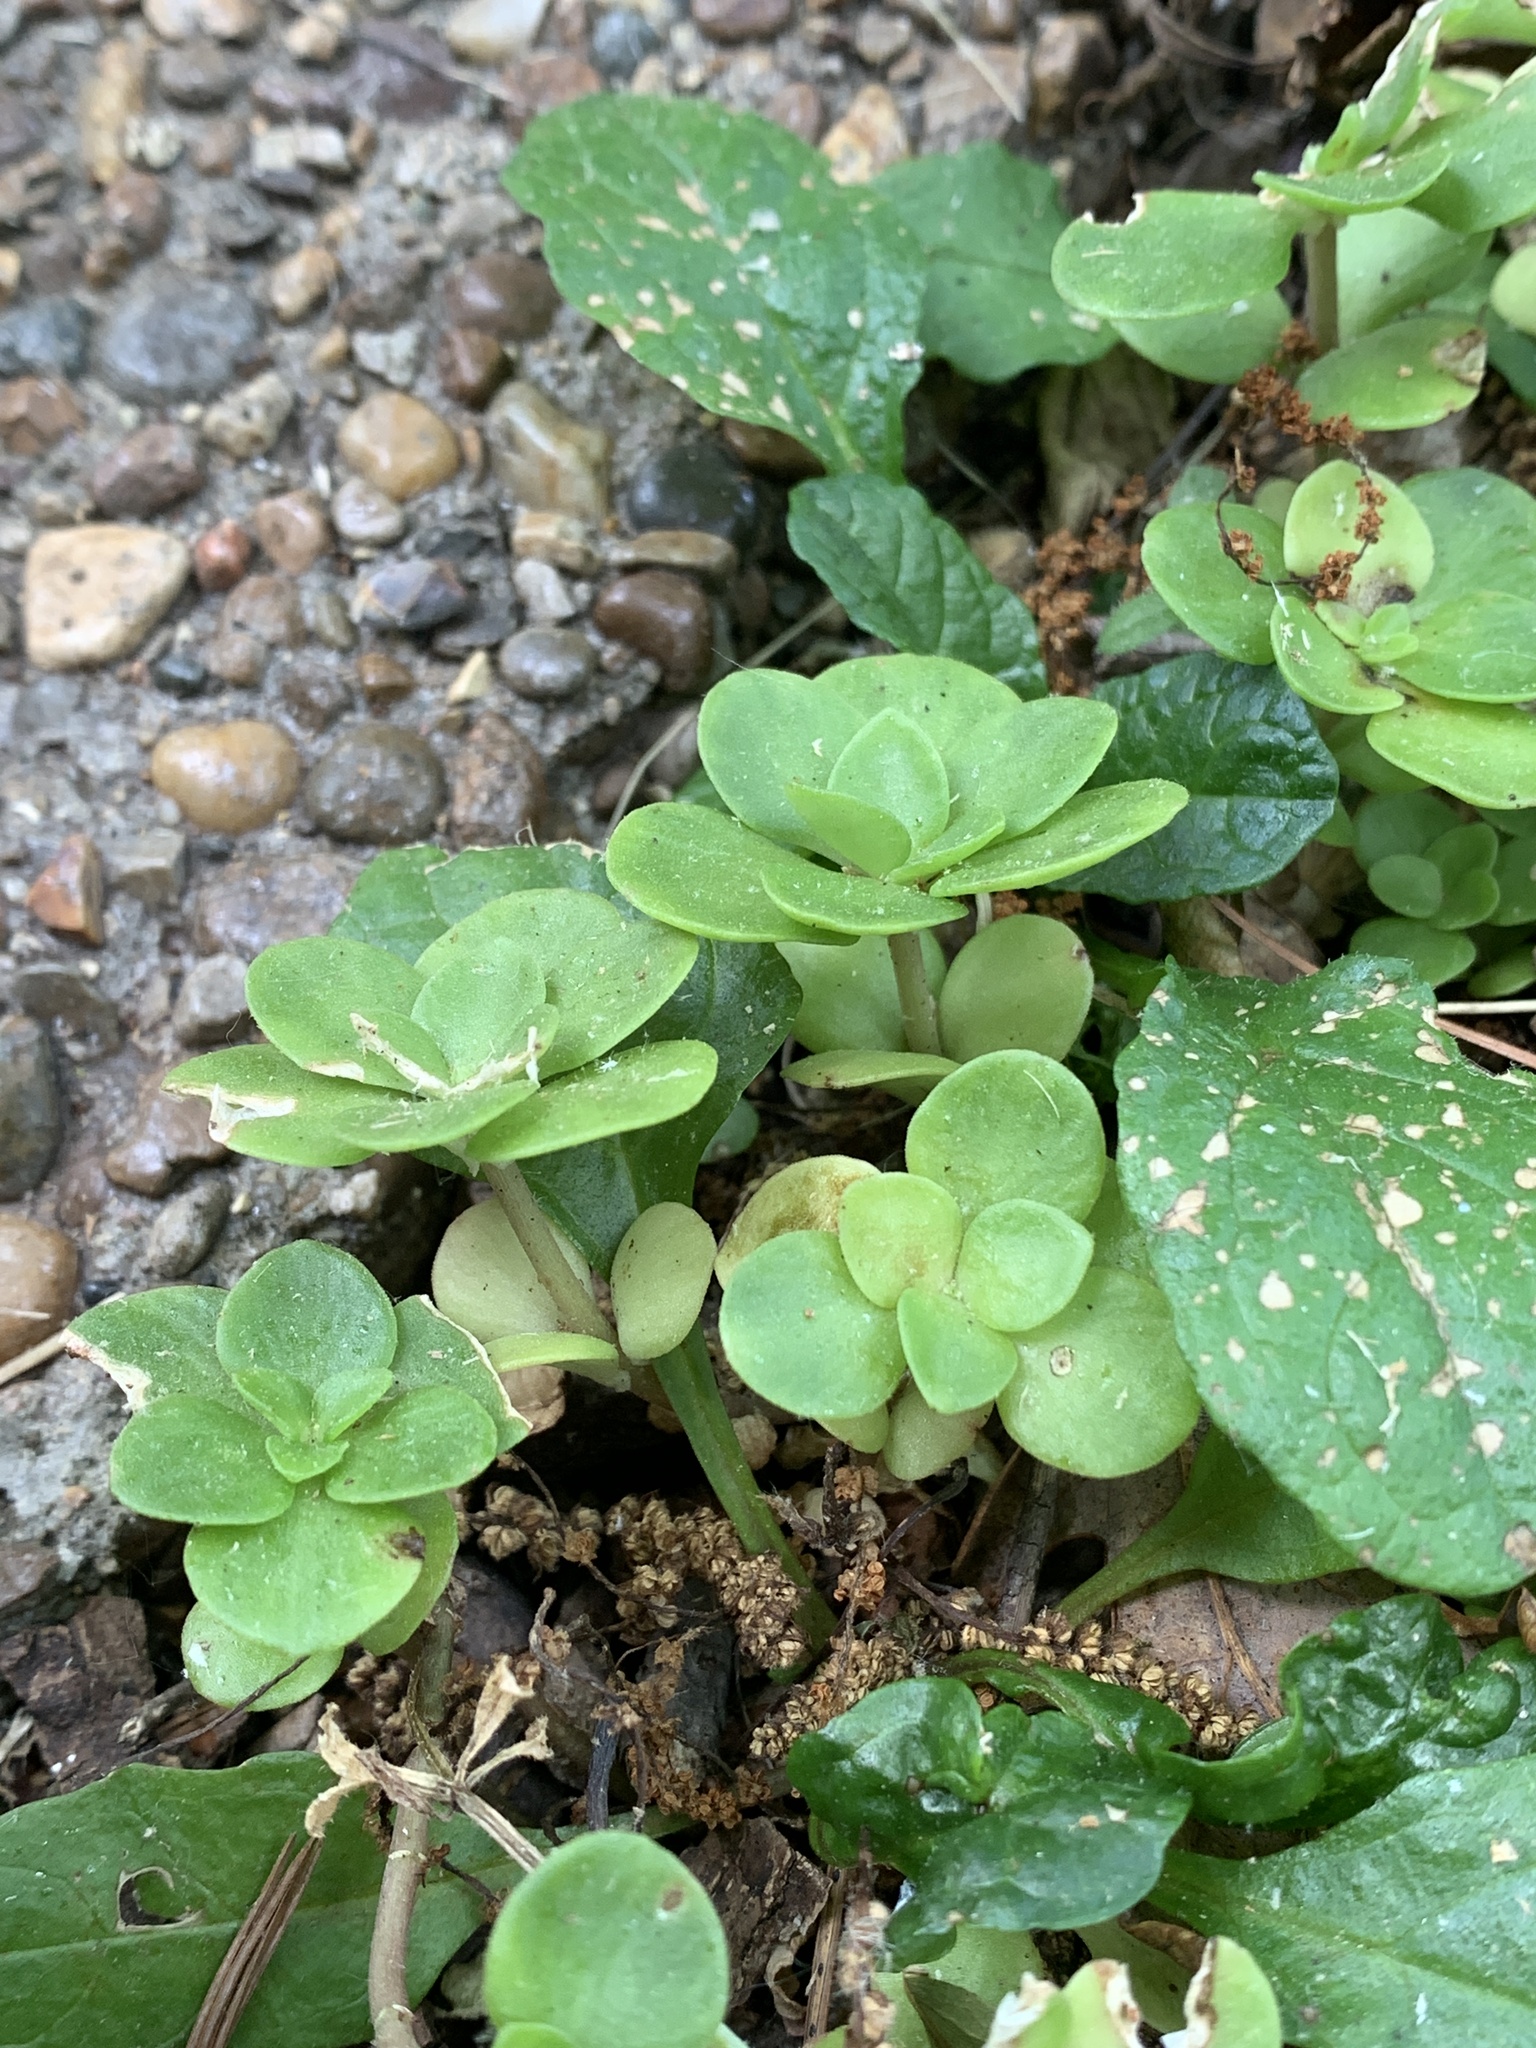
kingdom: Plantae
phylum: Tracheophyta
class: Magnoliopsida
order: Saxifragales
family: Crassulaceae
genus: Sedum
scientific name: Sedum ternatum
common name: Wild stonecrop
